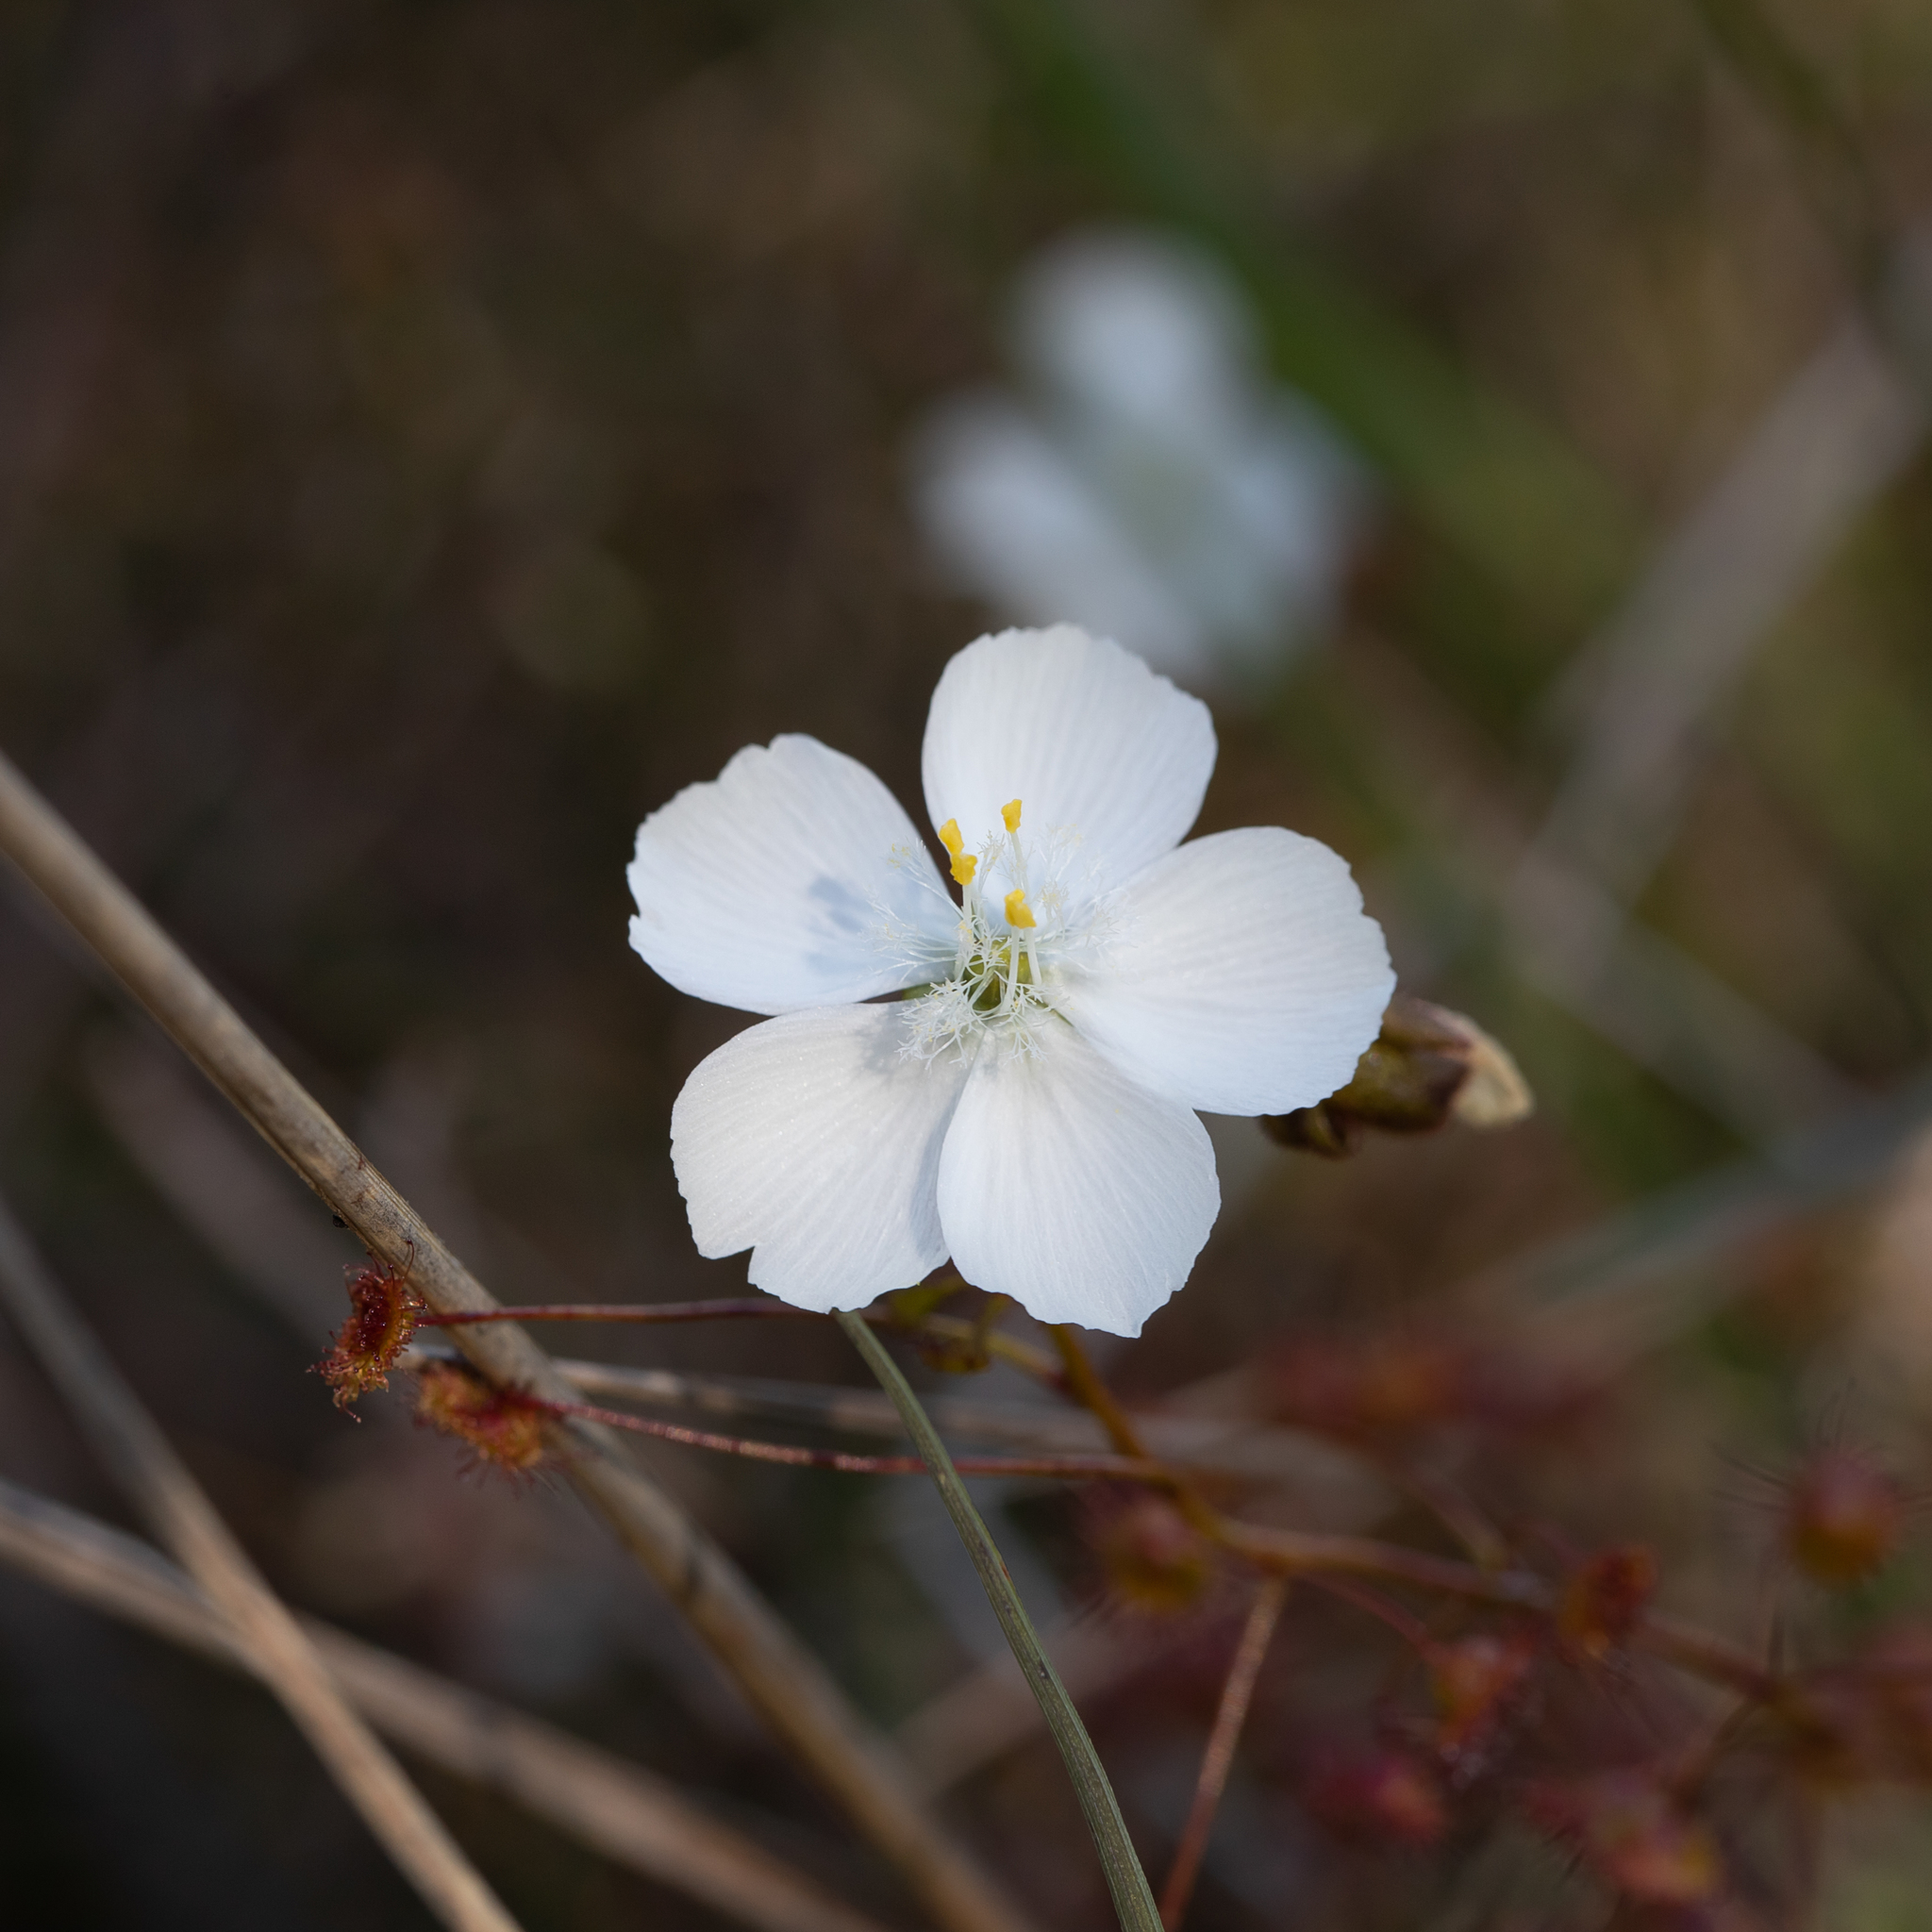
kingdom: Plantae
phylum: Tracheophyta
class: Magnoliopsida
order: Caryophyllales
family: Droseraceae
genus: Drosera
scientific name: Drosera planchonii
